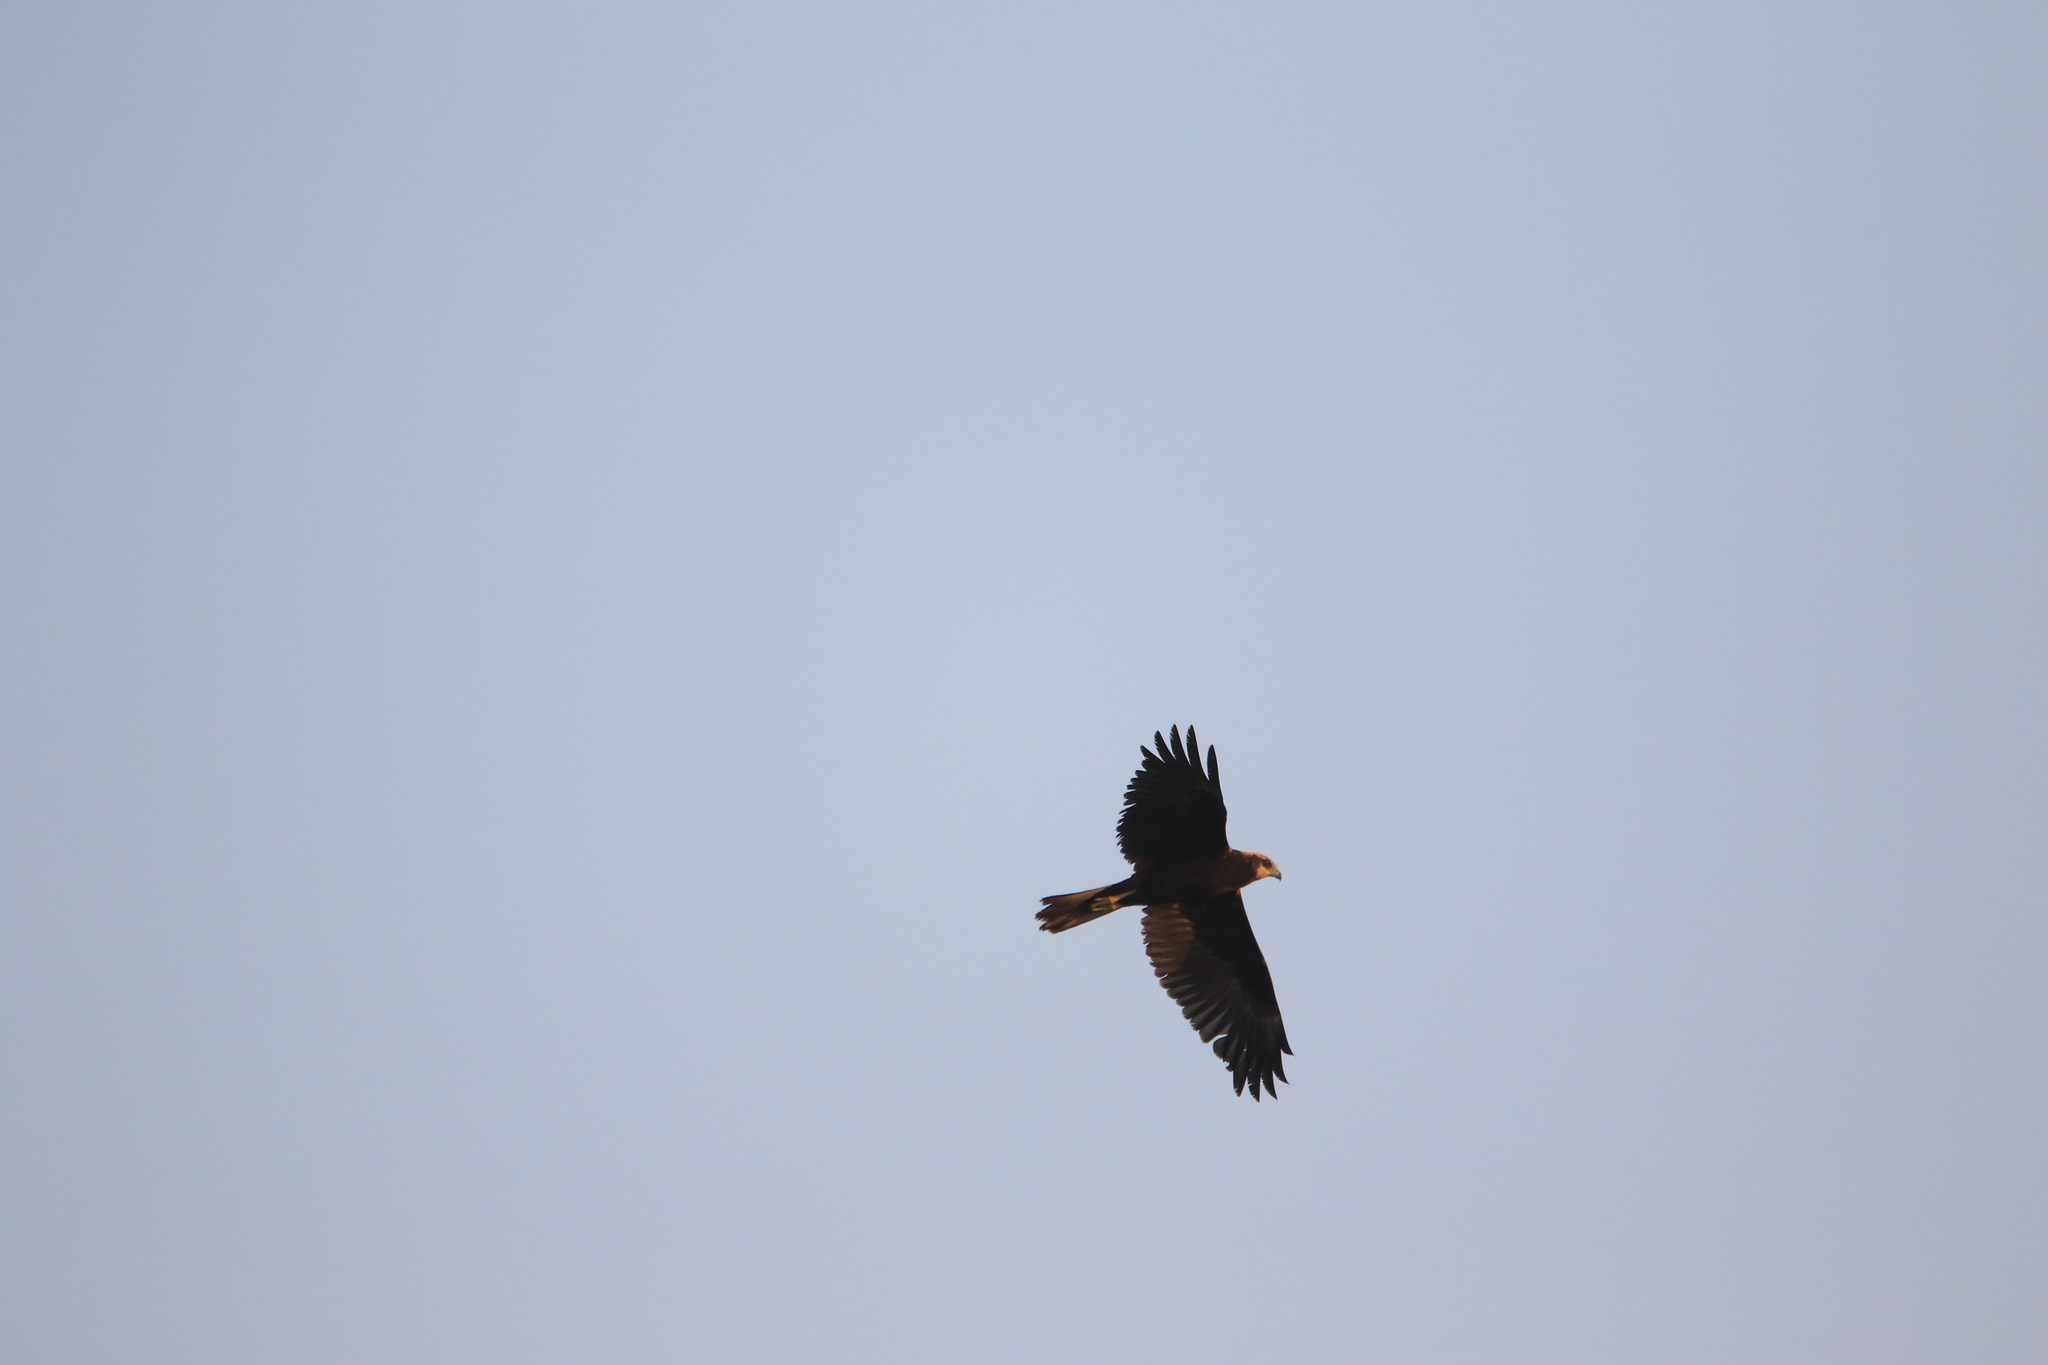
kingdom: Animalia
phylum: Chordata
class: Aves
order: Accipitriformes
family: Accipitridae
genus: Circus
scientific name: Circus aeruginosus
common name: Western marsh harrier
